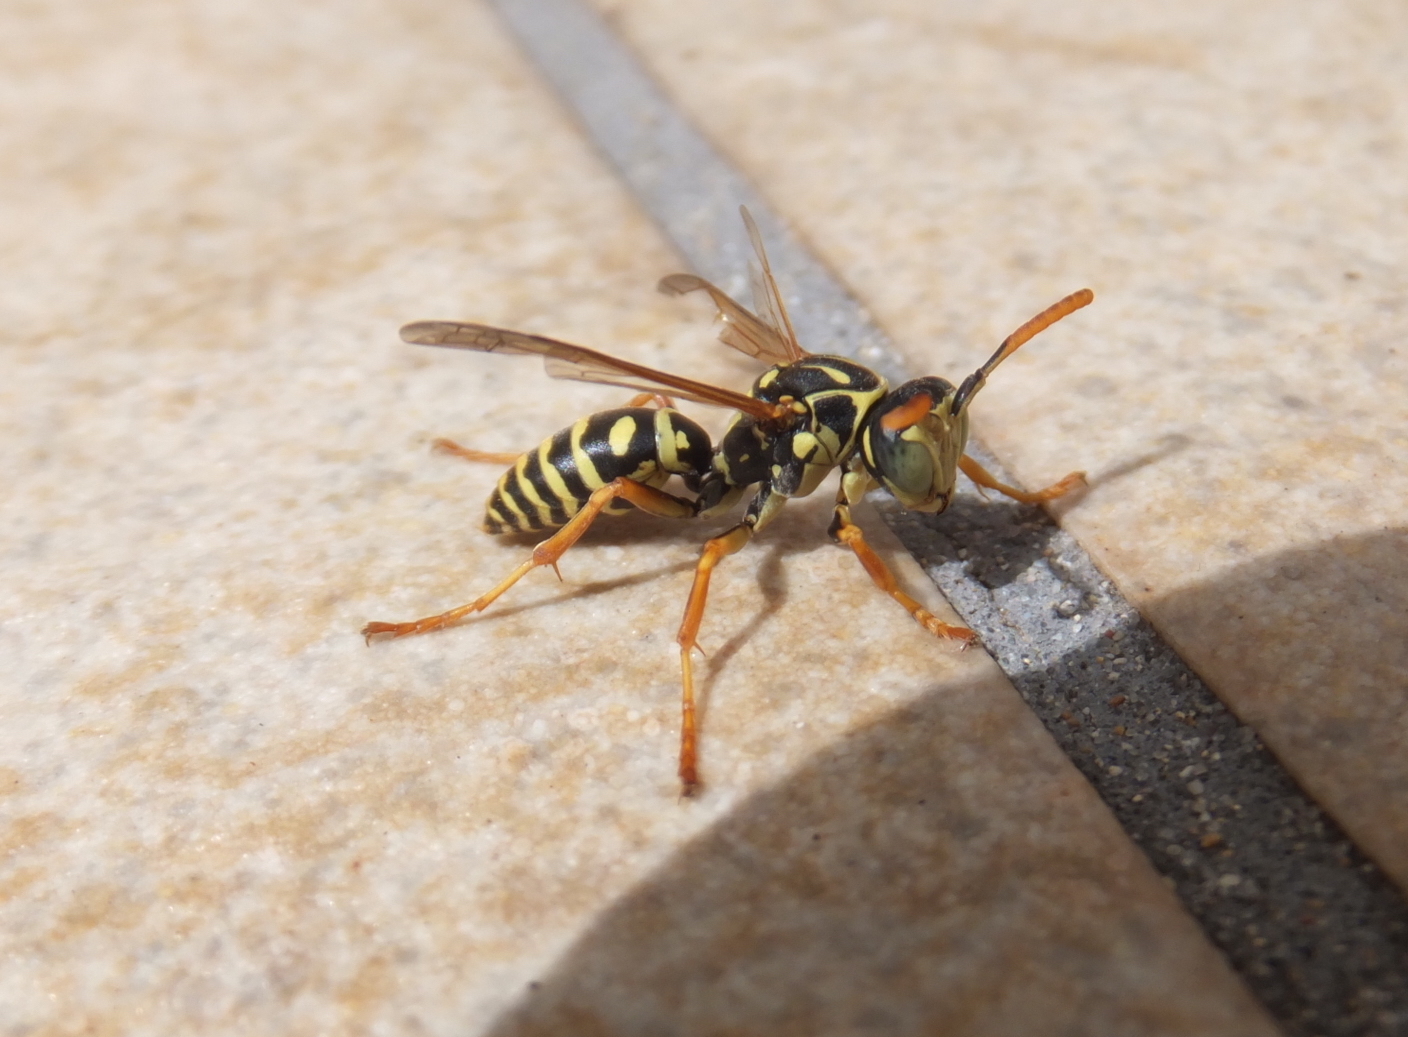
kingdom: Animalia
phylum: Arthropoda
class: Insecta
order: Hymenoptera
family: Eumenidae
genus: Polistes
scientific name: Polistes nimpha
